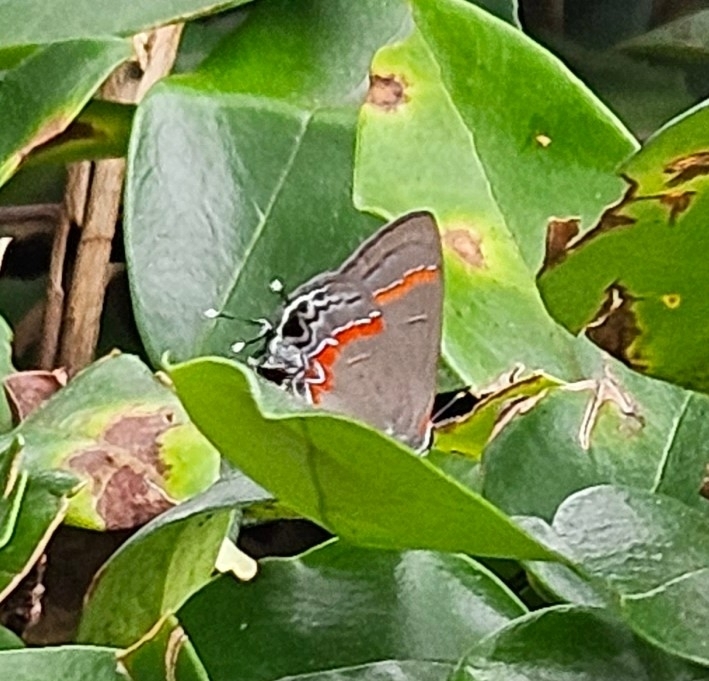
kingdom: Animalia
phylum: Arthropoda
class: Insecta
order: Lepidoptera
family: Lycaenidae
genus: Calycopis
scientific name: Calycopis cecrops
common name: Red-banded hairstreak
